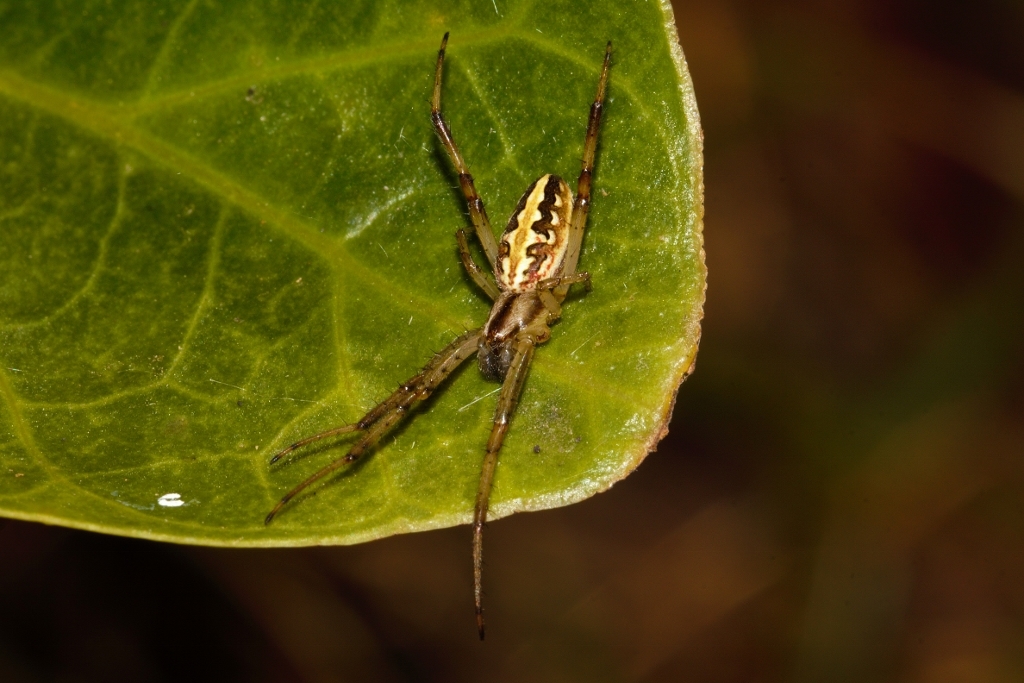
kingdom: Animalia
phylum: Arthropoda
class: Arachnida
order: Araneae
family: Araneidae
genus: Neoscona
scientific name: Neoscona moreli
